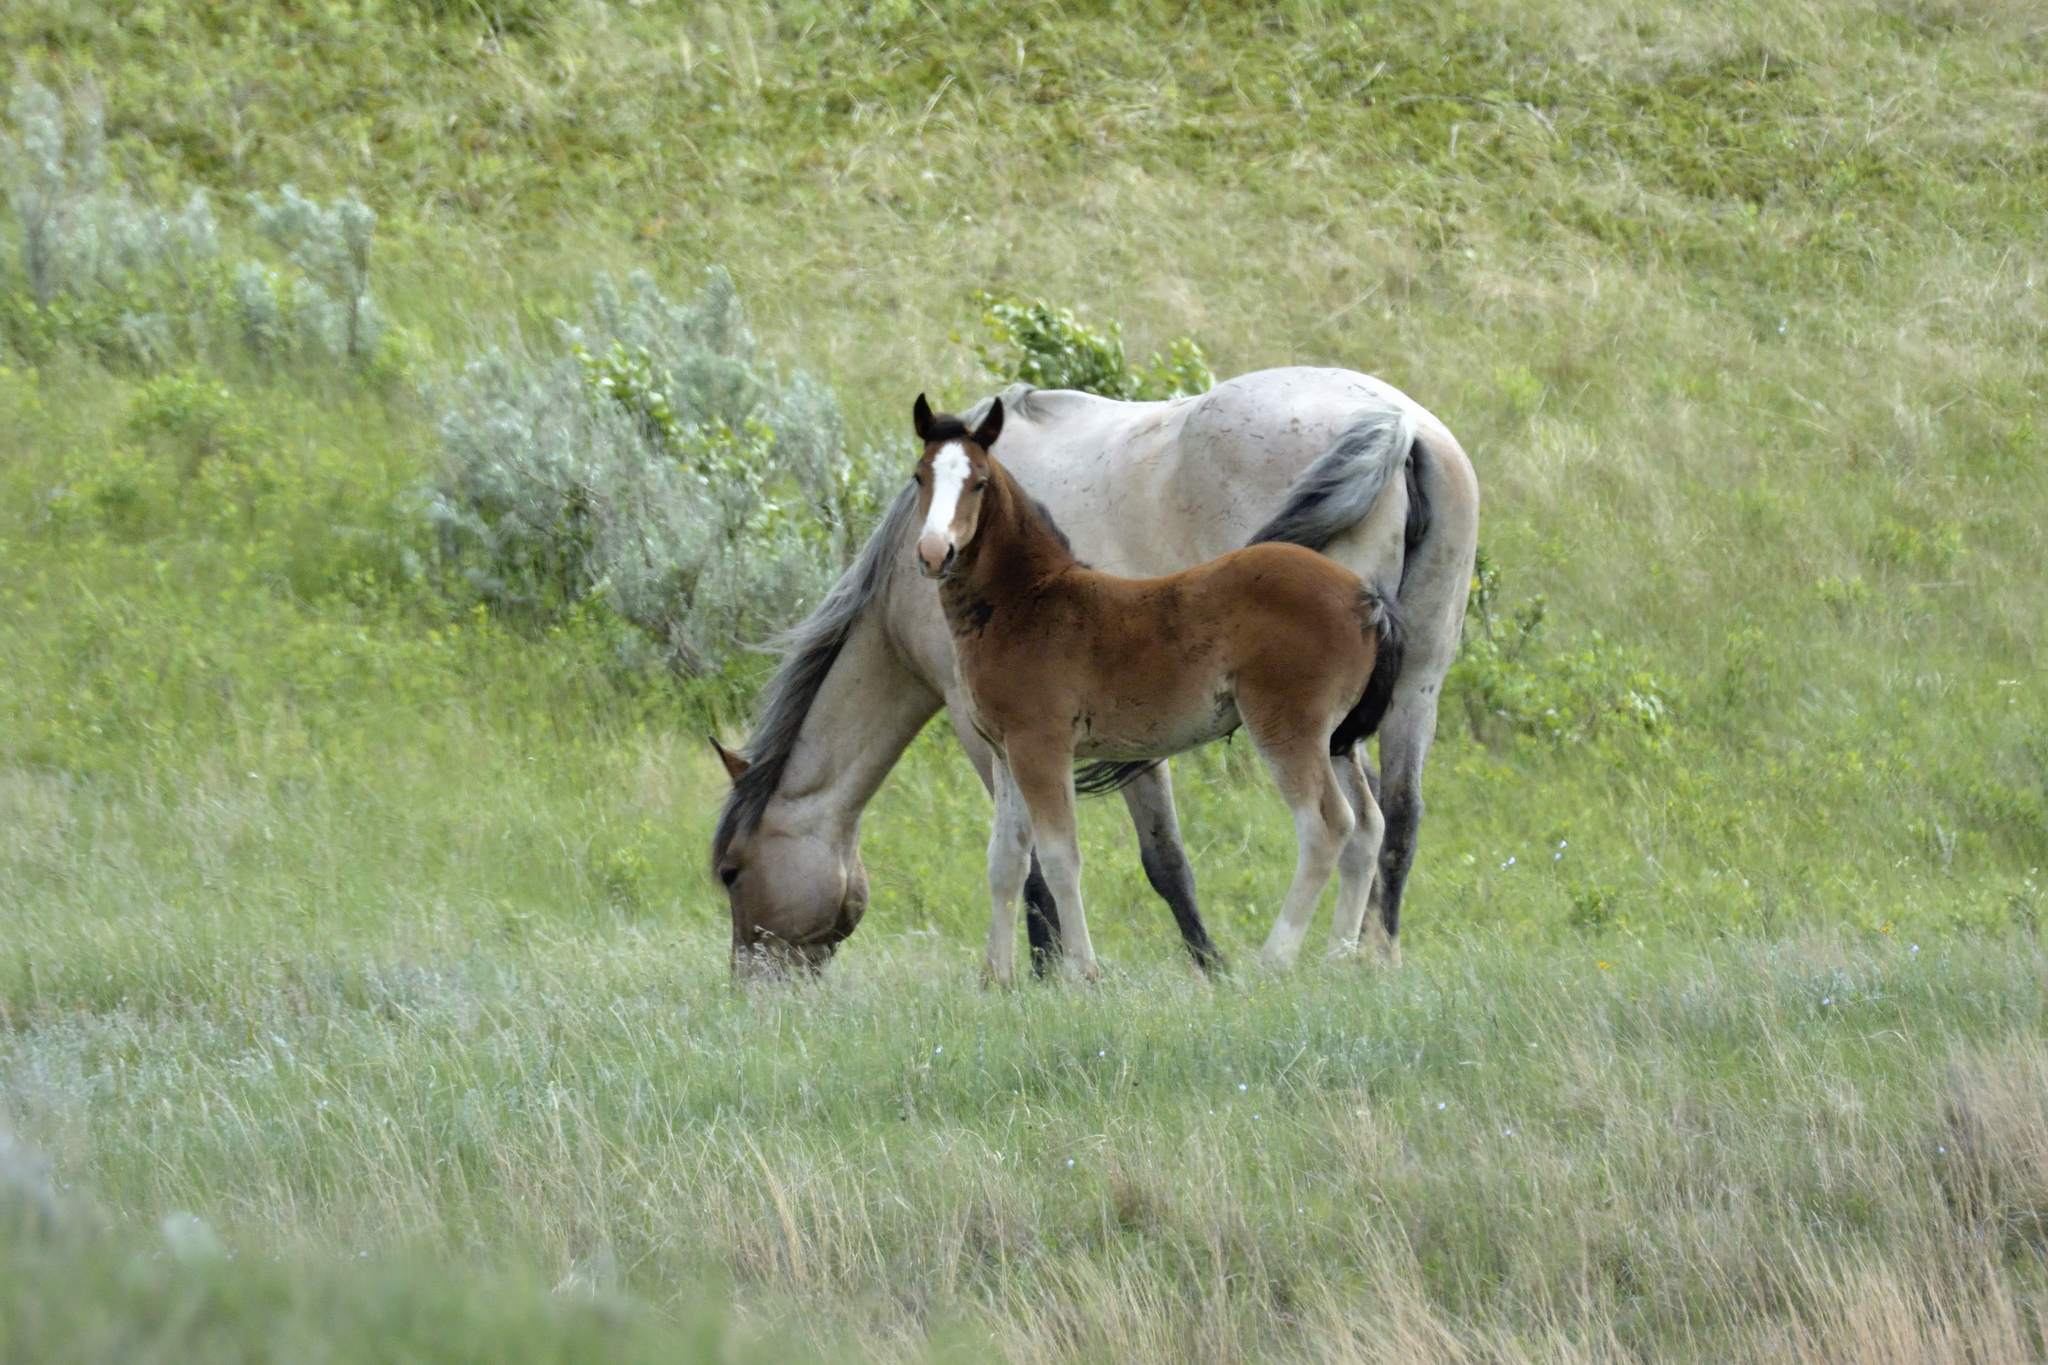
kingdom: Animalia
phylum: Chordata
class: Mammalia
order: Perissodactyla
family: Equidae
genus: Equus
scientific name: Equus caballus
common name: Horse
